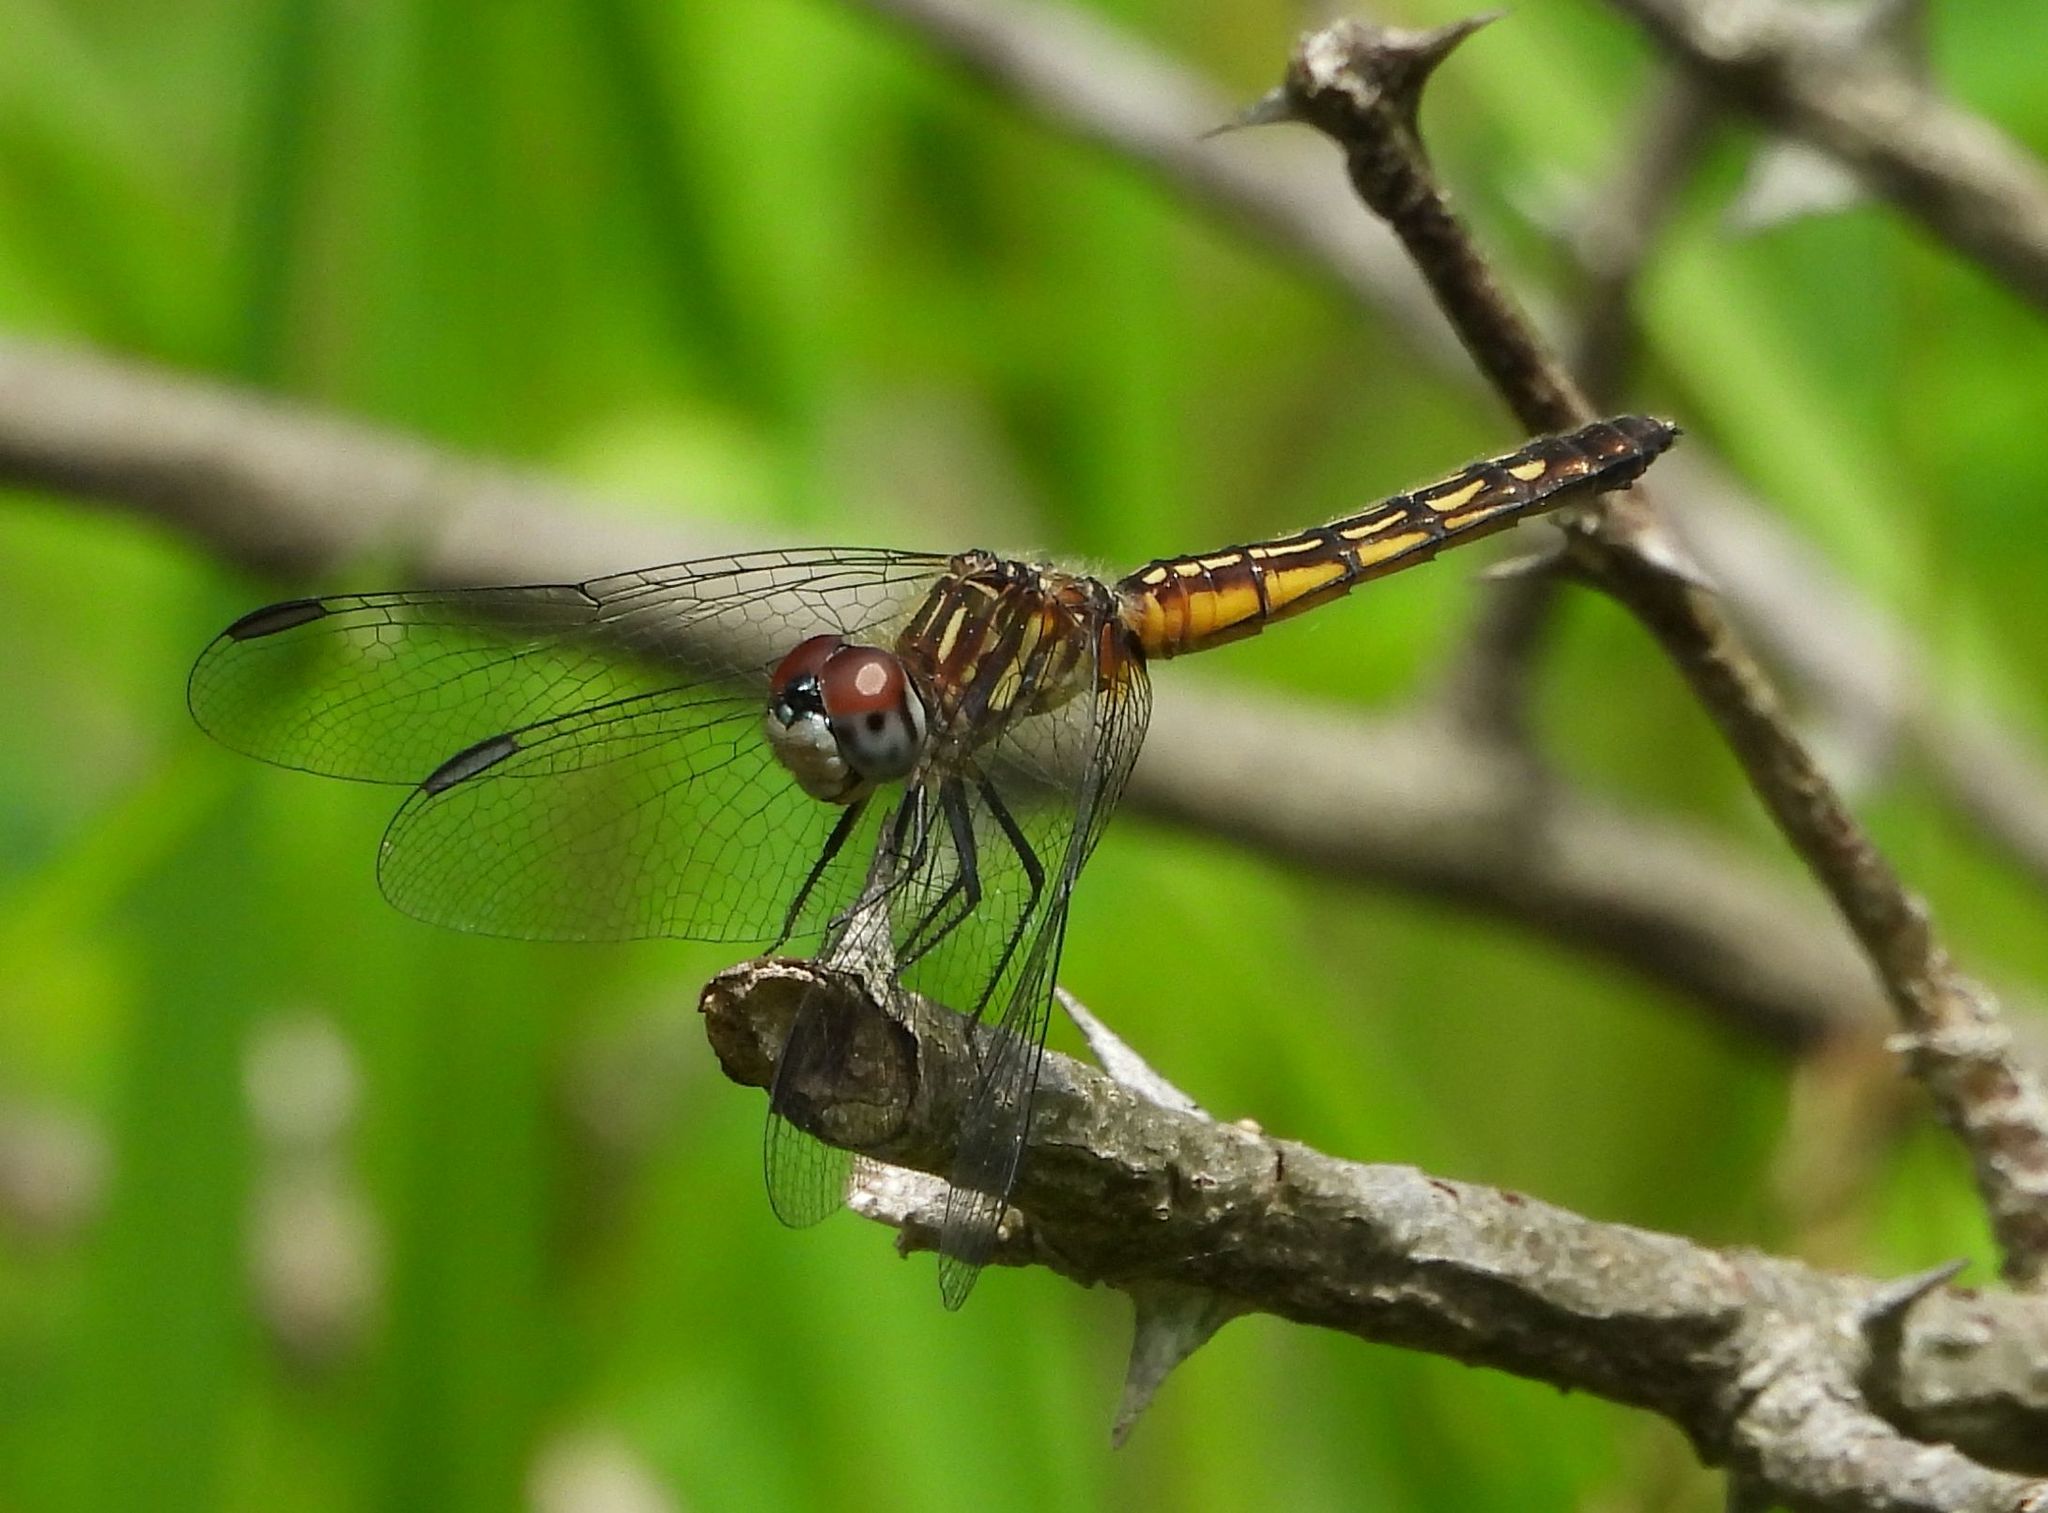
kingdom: Animalia
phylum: Arthropoda
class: Insecta
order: Odonata
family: Libellulidae
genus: Pachydiplax
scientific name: Pachydiplax longipennis
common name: Blue dasher
